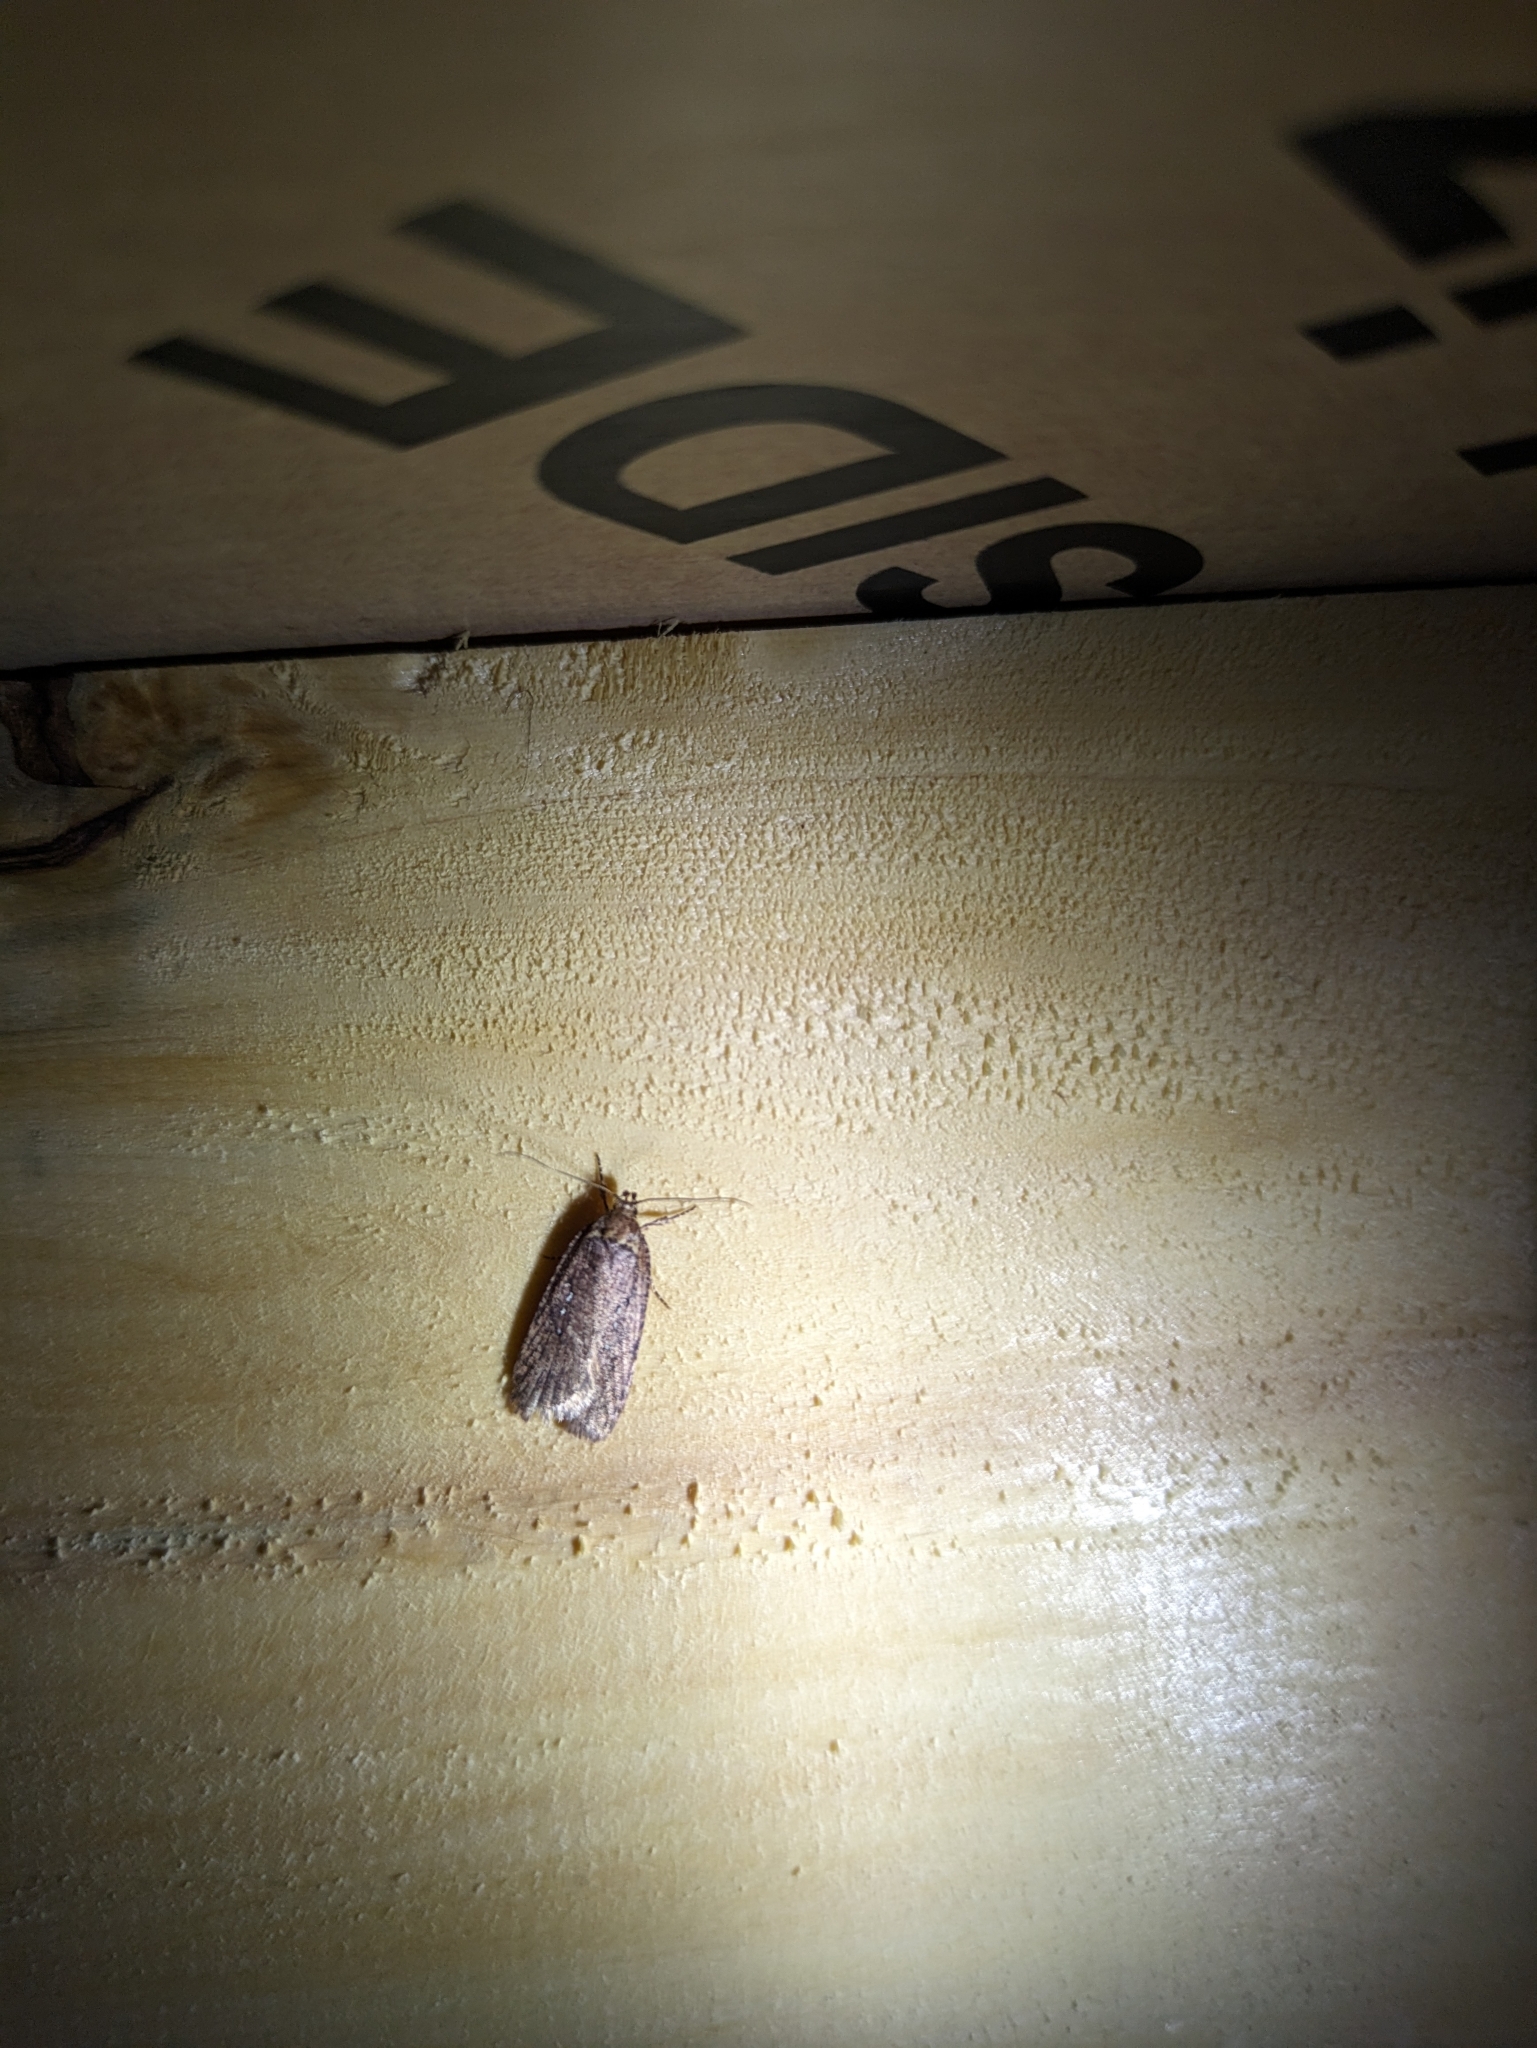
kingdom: Animalia
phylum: Arthropoda
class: Insecta
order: Lepidoptera
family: Depressariidae
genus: Agonopterix
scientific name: Agonopterix rosaciliella
